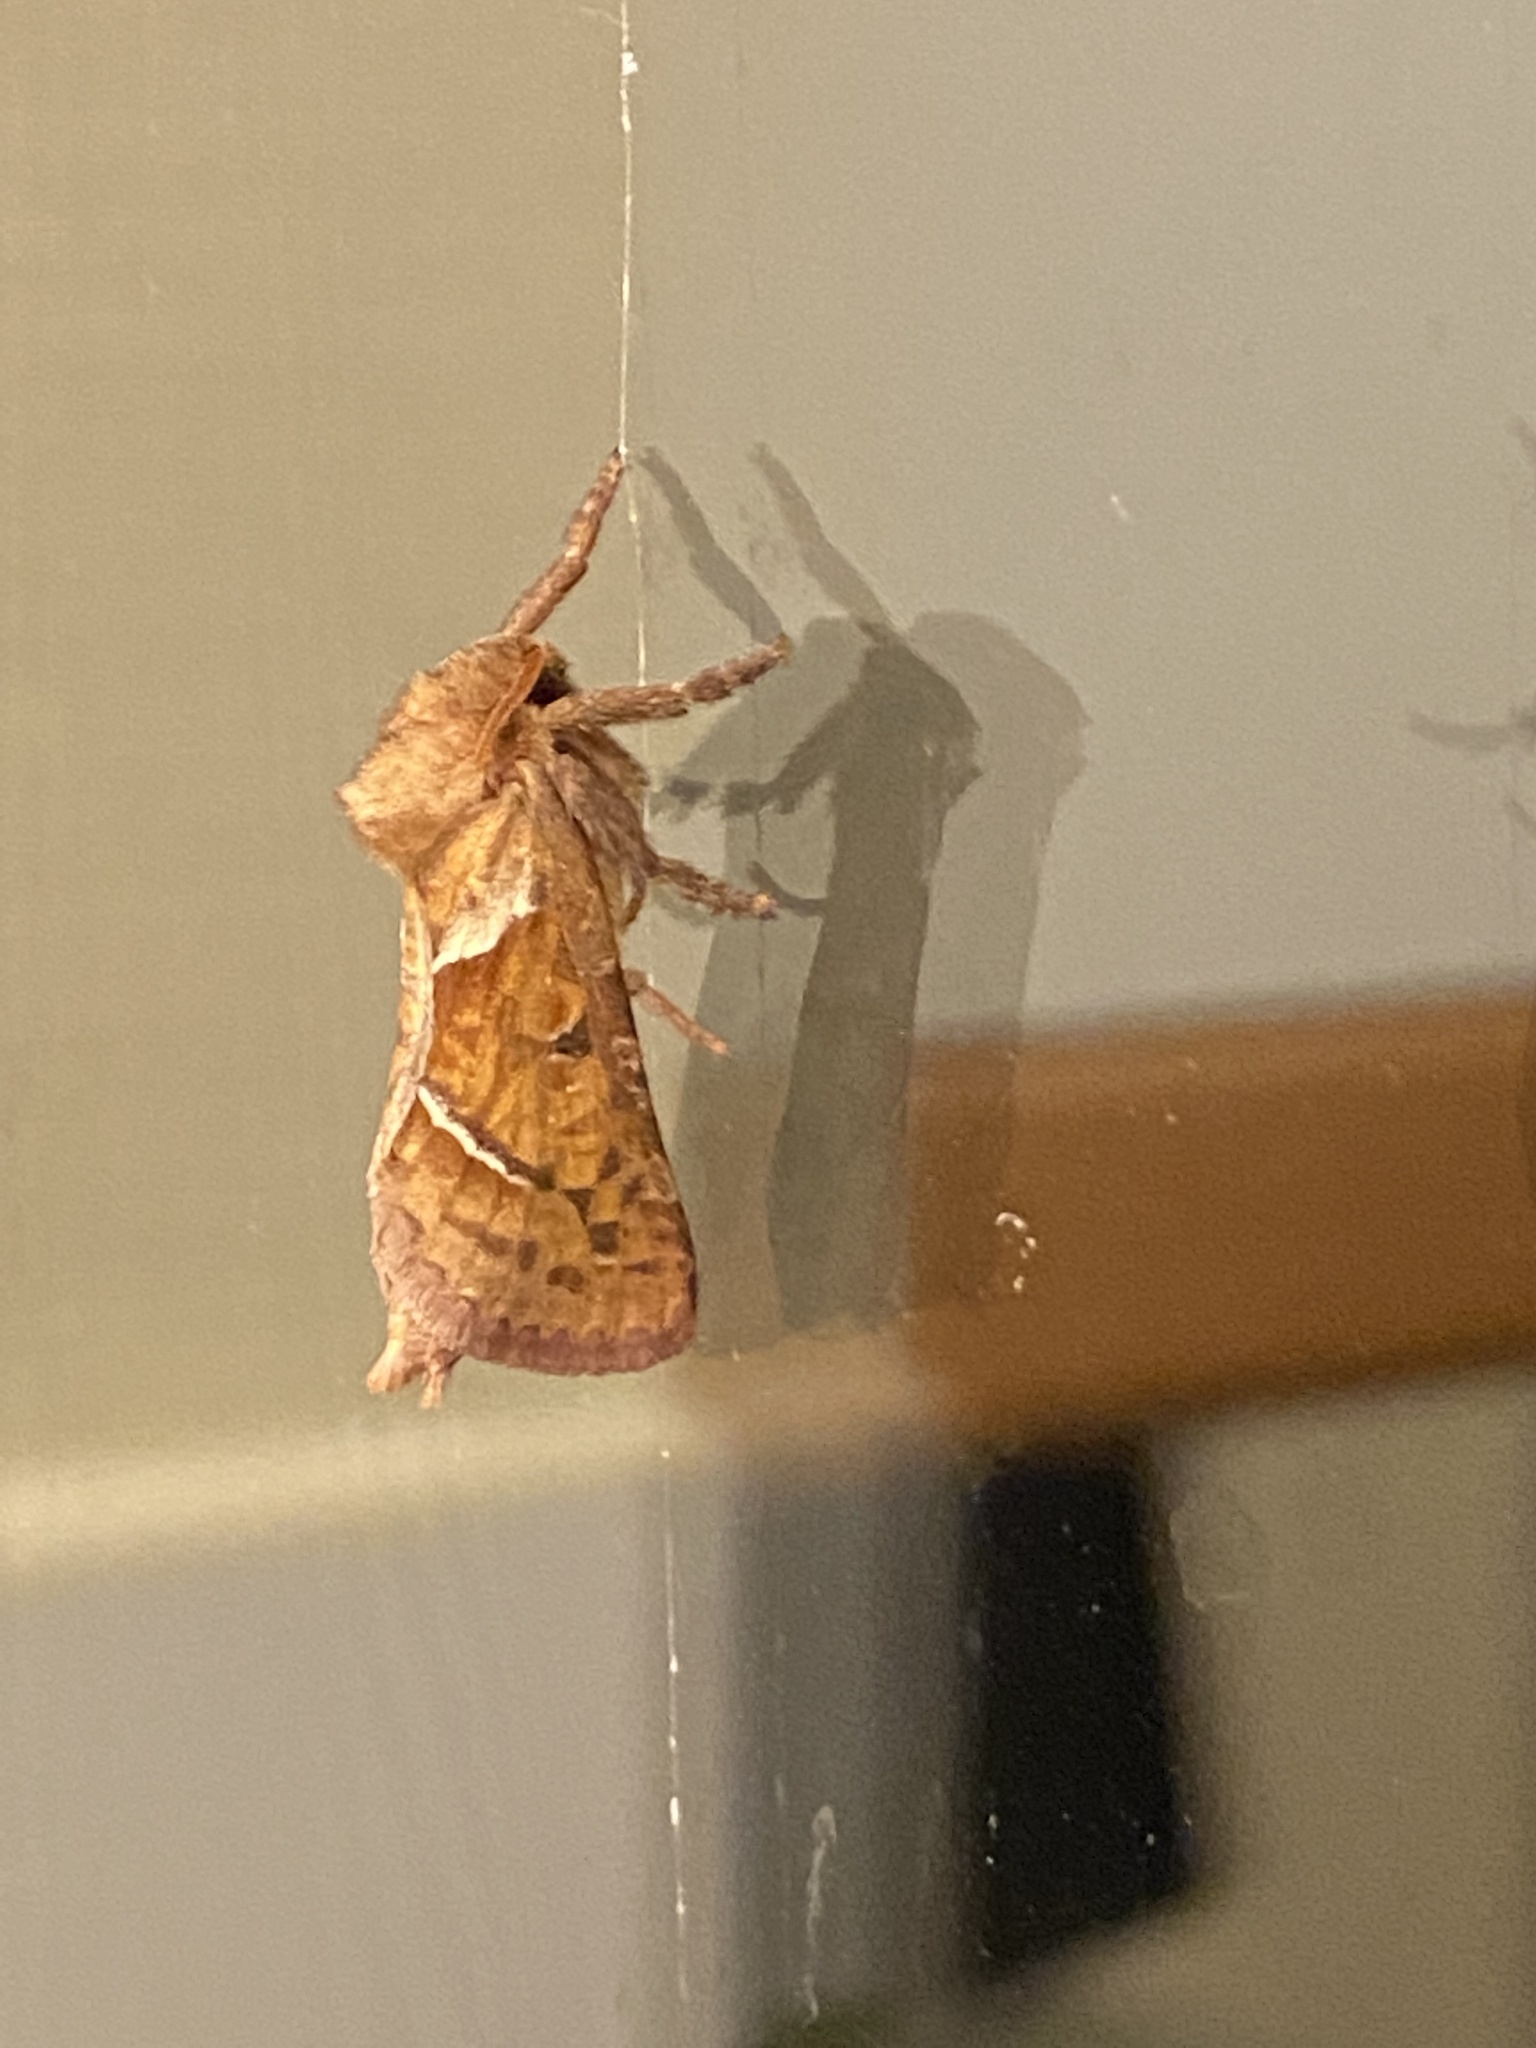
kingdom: Animalia
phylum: Arthropoda
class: Insecta
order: Lepidoptera
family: Hepialidae
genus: Triodia
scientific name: Triodia sylvina
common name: Orange swift
